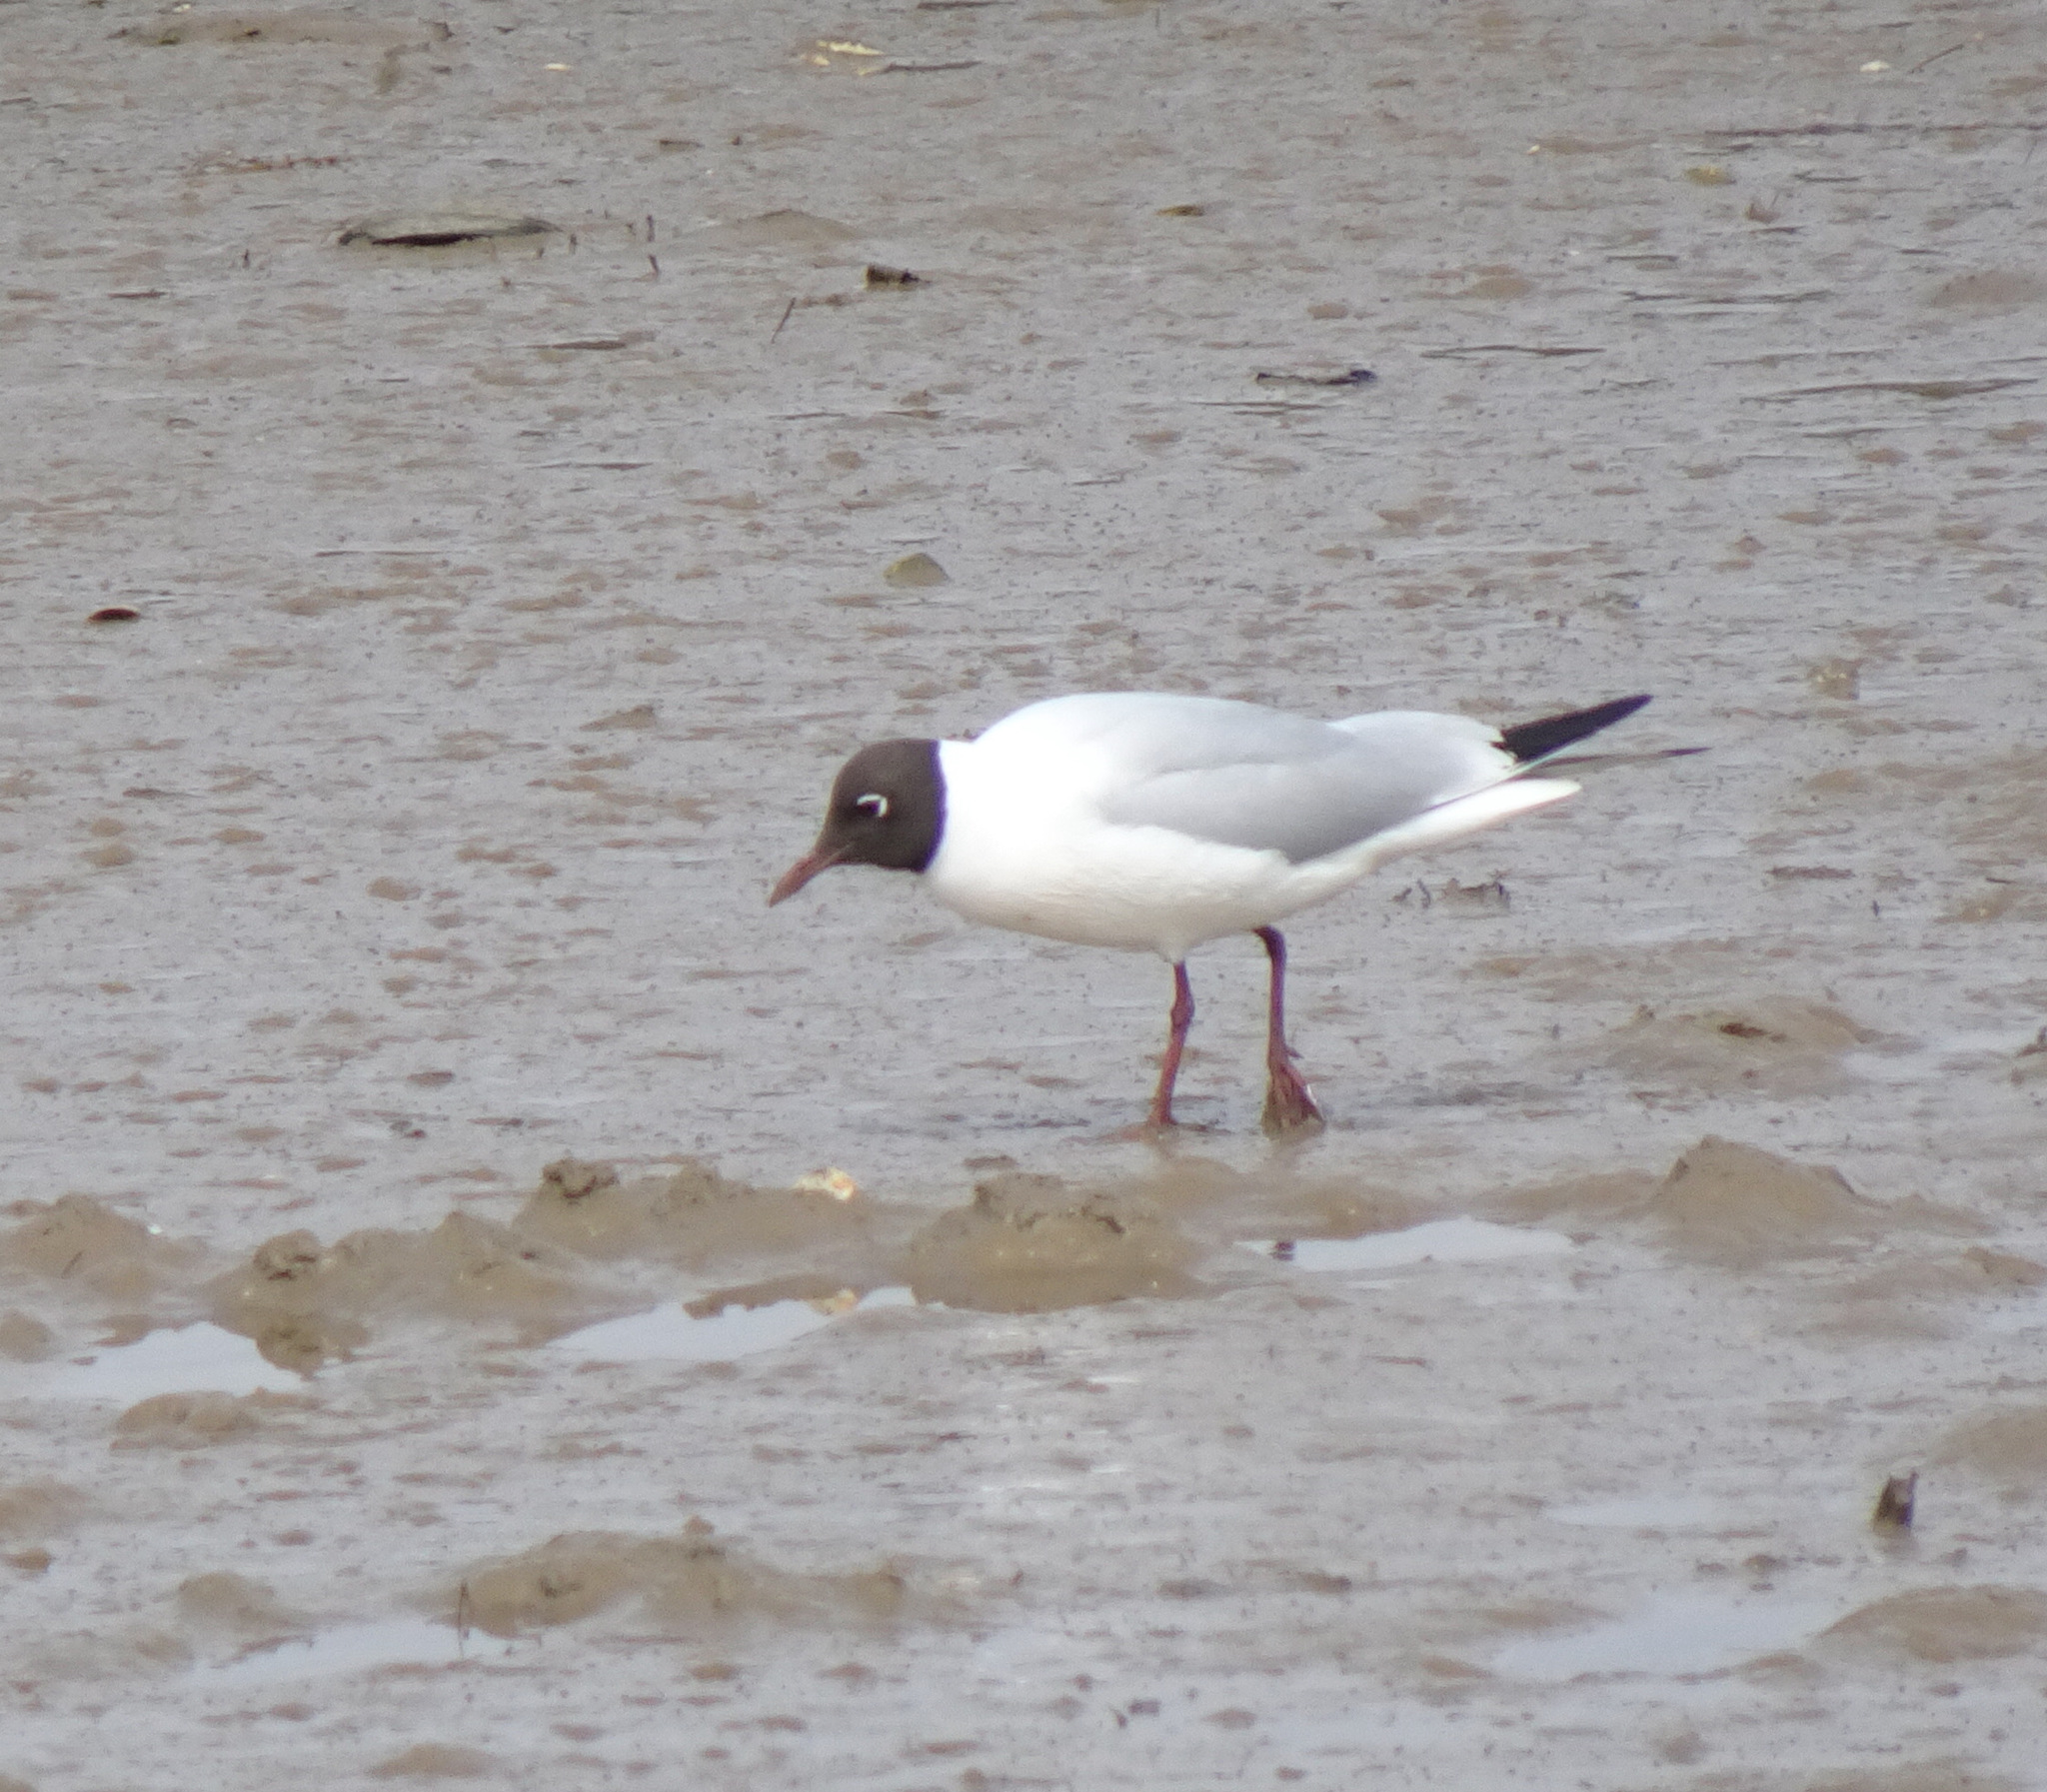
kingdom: Animalia
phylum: Chordata
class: Aves
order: Charadriiformes
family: Laridae
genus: Chroicocephalus
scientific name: Chroicocephalus ridibundus
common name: Black-headed gull
